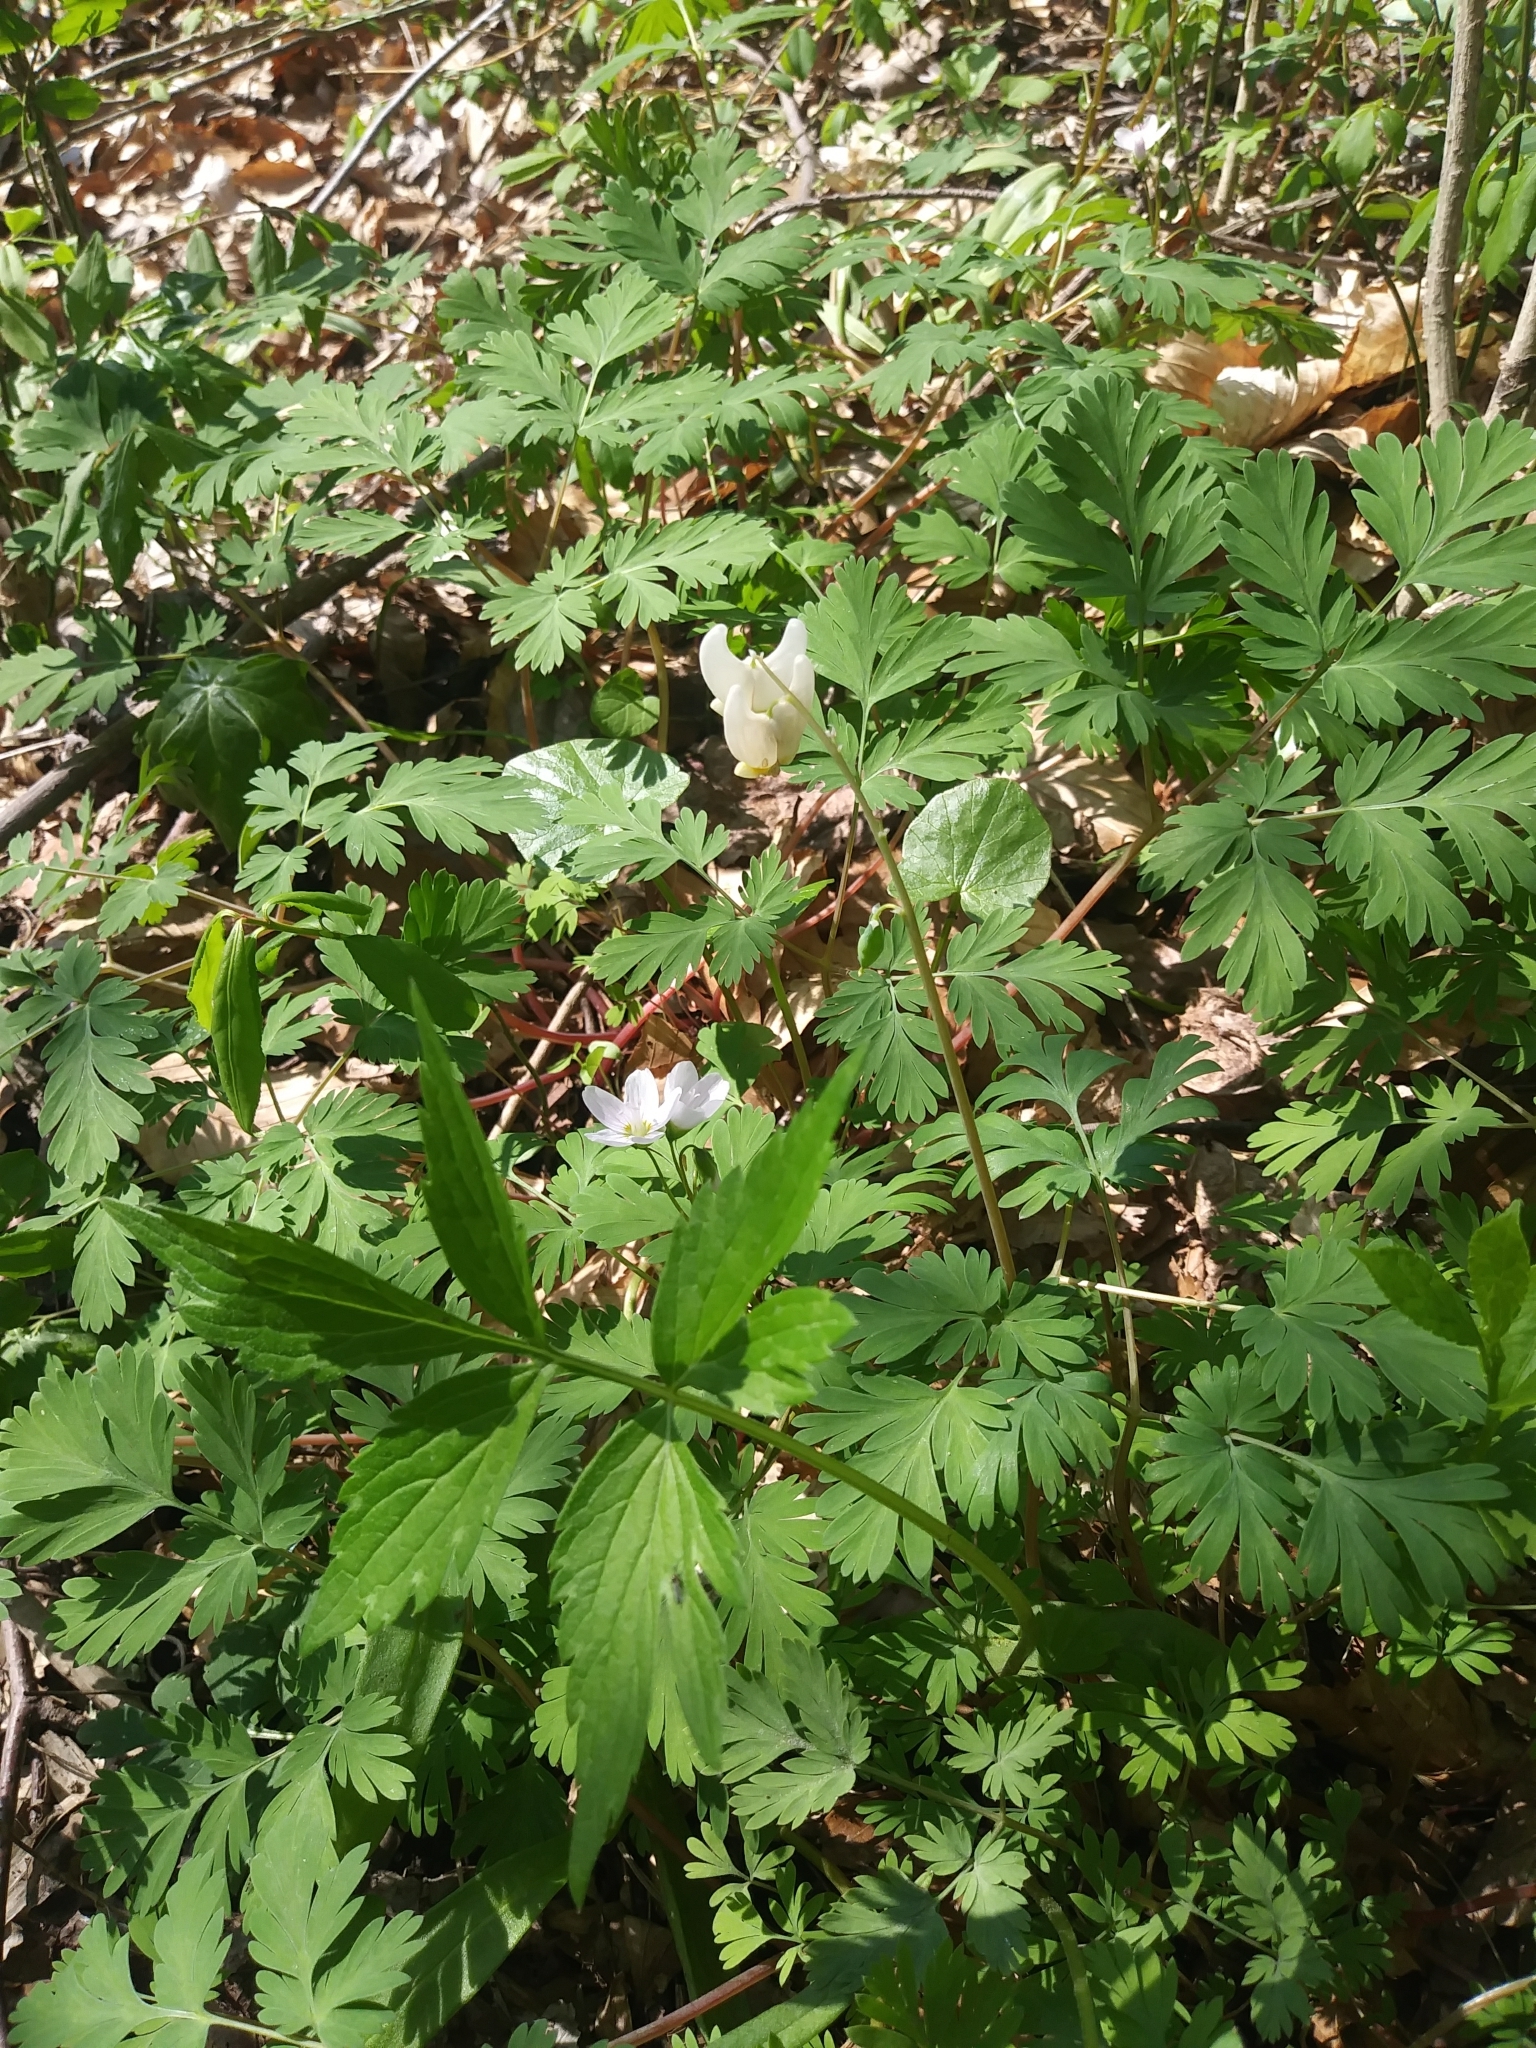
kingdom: Plantae
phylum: Tracheophyta
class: Magnoliopsida
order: Ranunculales
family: Papaveraceae
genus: Dicentra
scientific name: Dicentra cucullaria
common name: Dutchman's breeches
